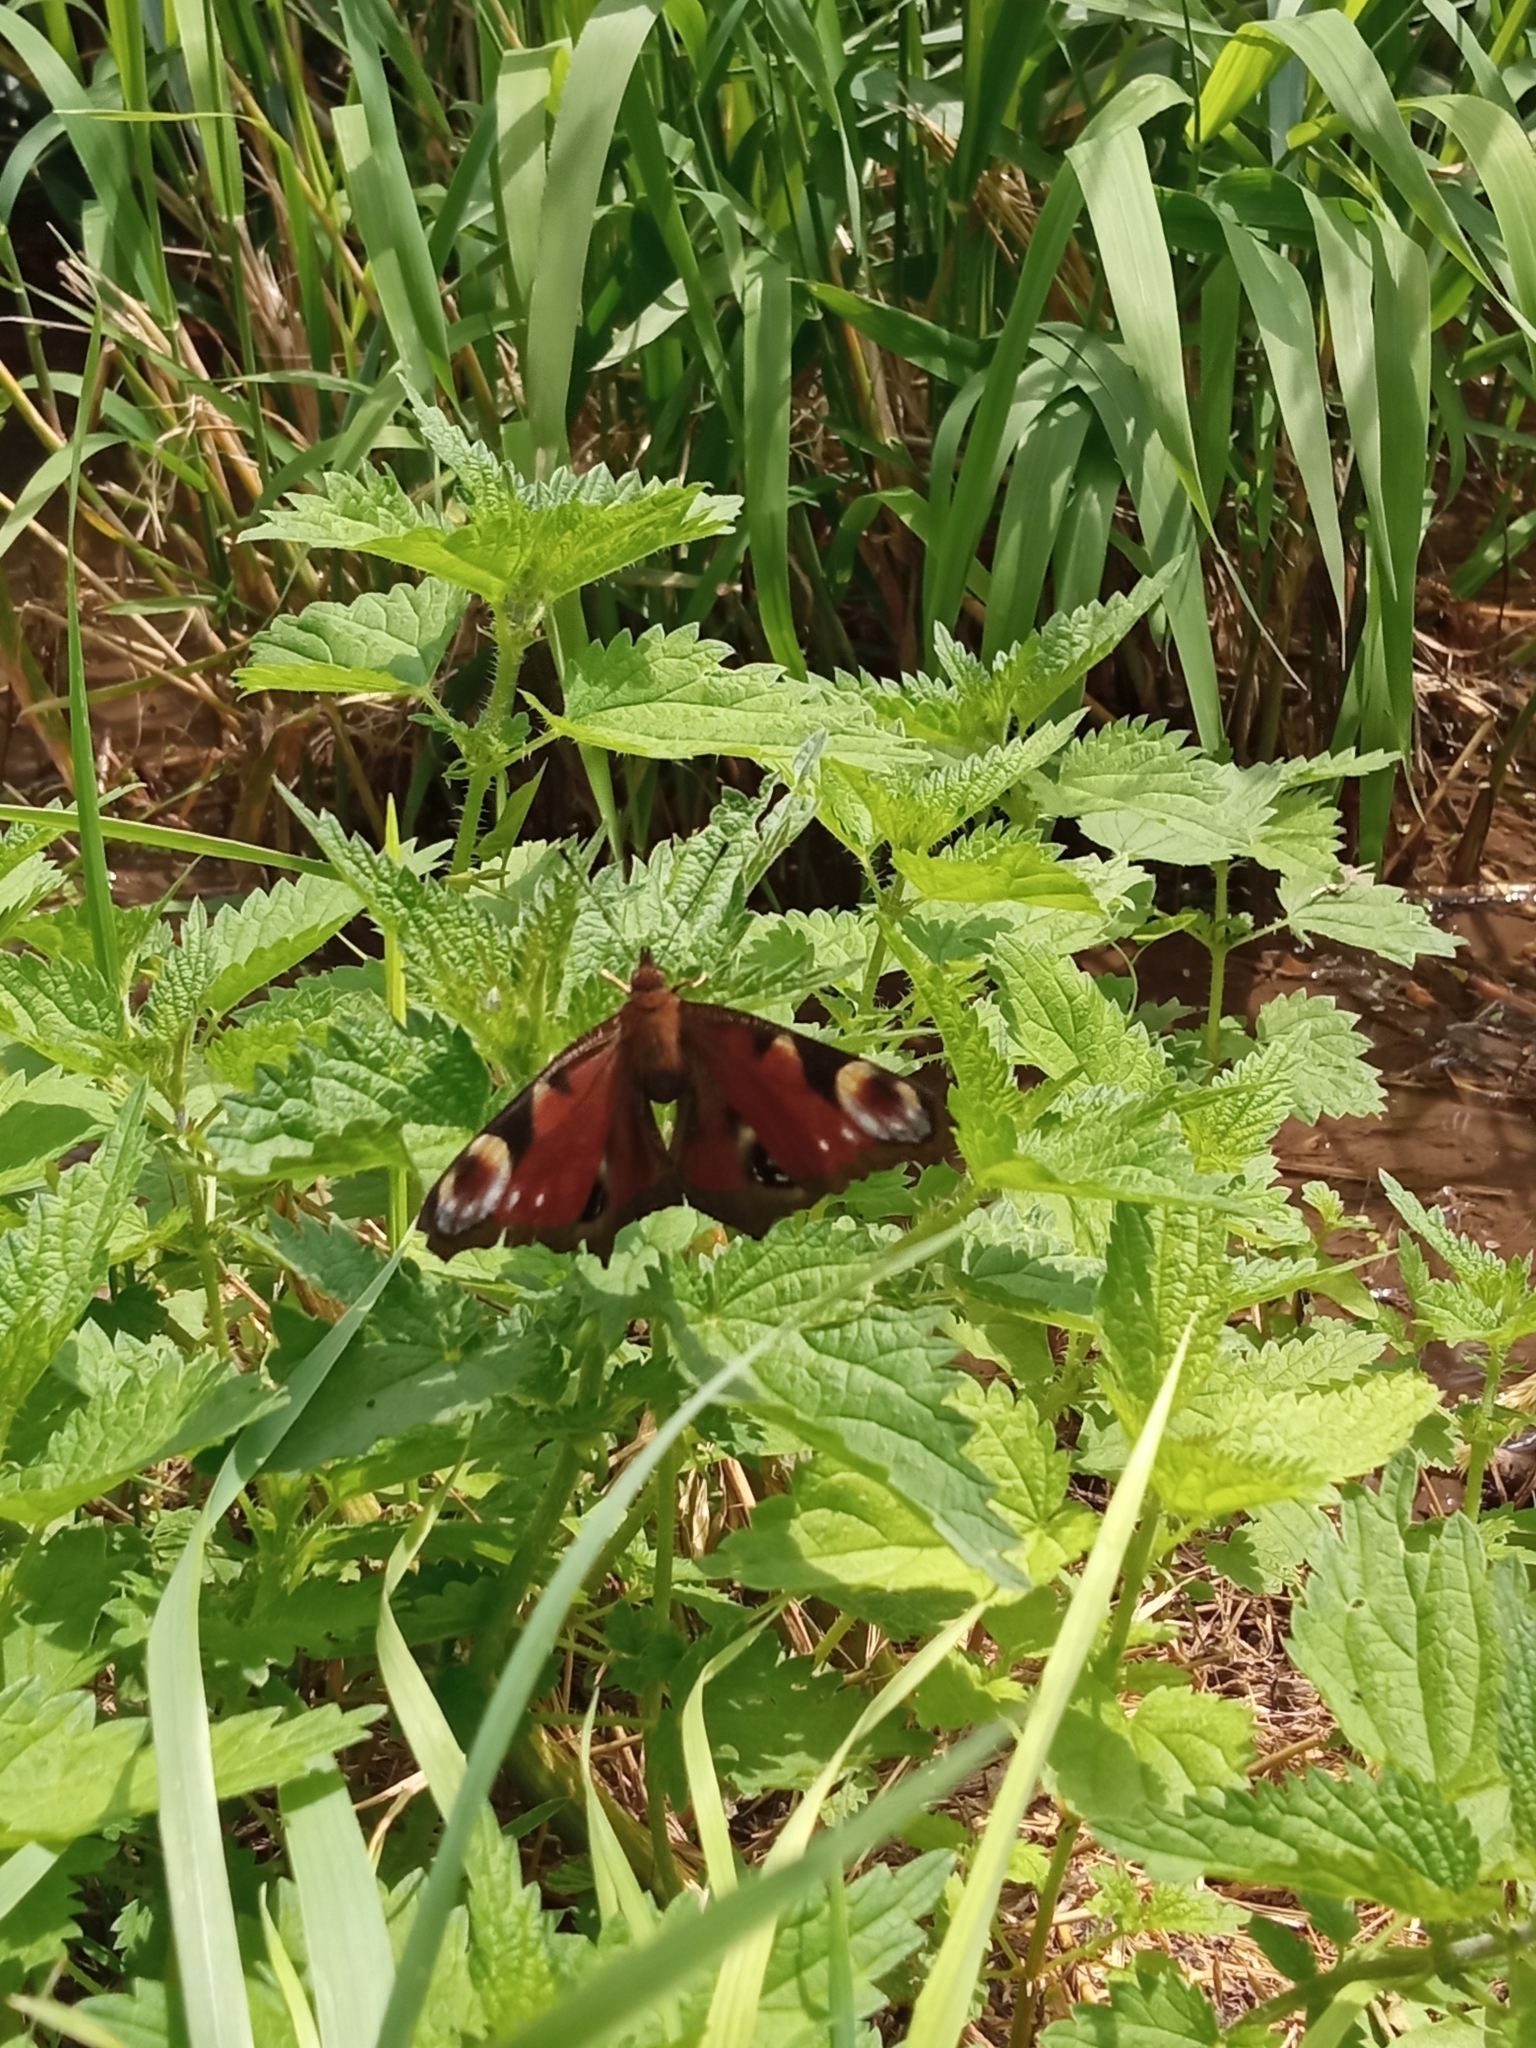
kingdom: Animalia
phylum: Arthropoda
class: Insecta
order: Lepidoptera
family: Nymphalidae
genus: Aglais
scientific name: Aglais io
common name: Peacock
